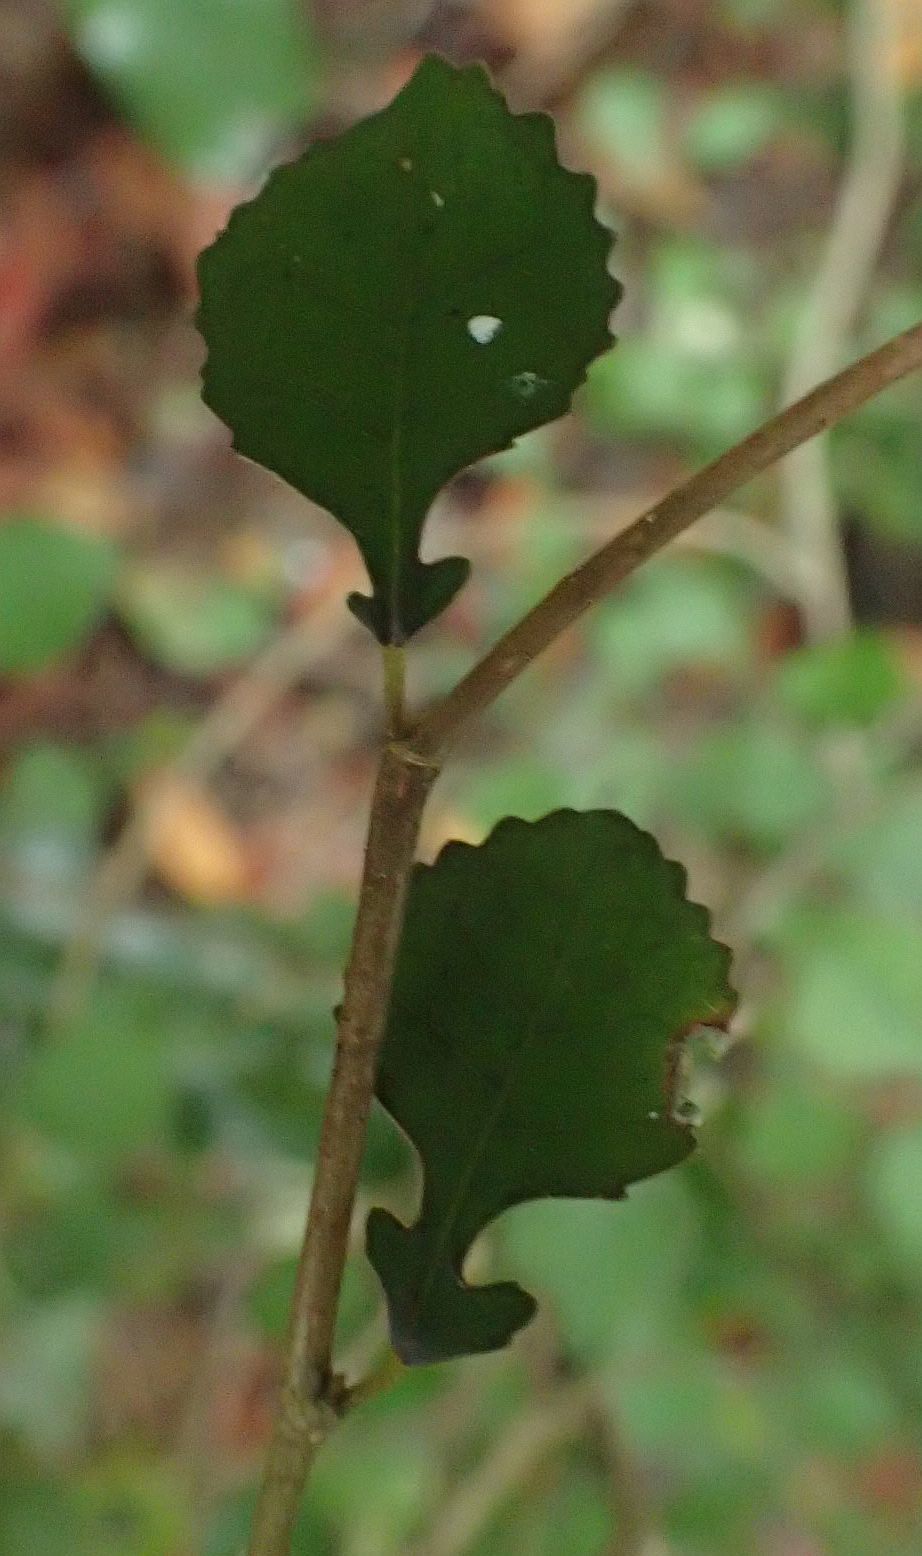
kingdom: Plantae
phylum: Tracheophyta
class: Magnoliopsida
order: Rosales
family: Moraceae
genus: Paratrophis
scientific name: Paratrophis microphylla
